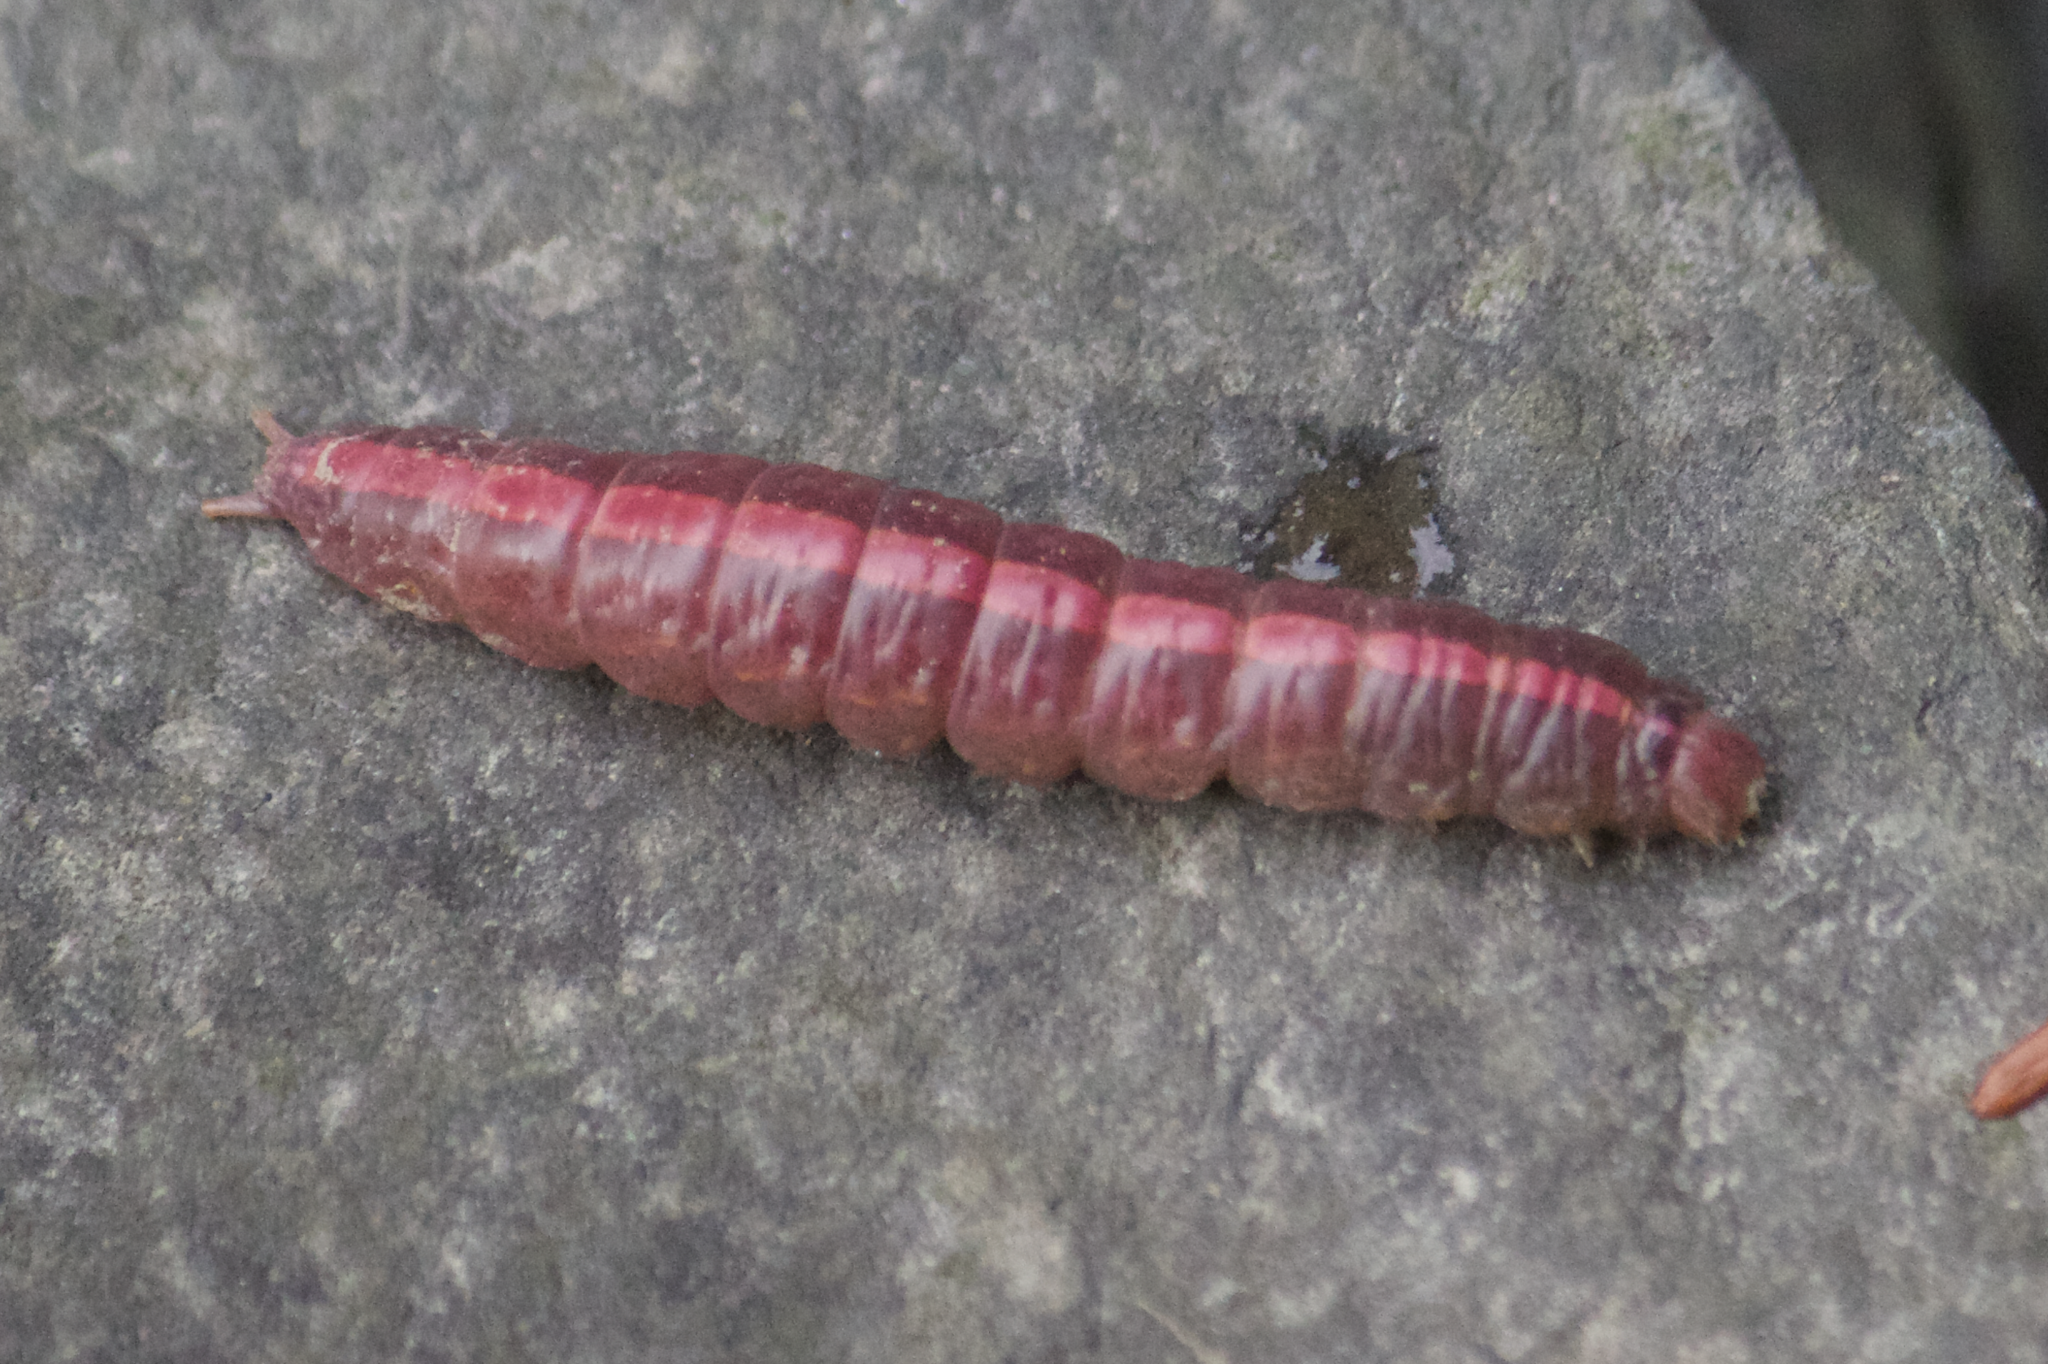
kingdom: Animalia
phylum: Arthropoda
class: Insecta
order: Lepidoptera
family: Notodontidae
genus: Misogada
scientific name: Misogada unicolor
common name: Drab prominent
